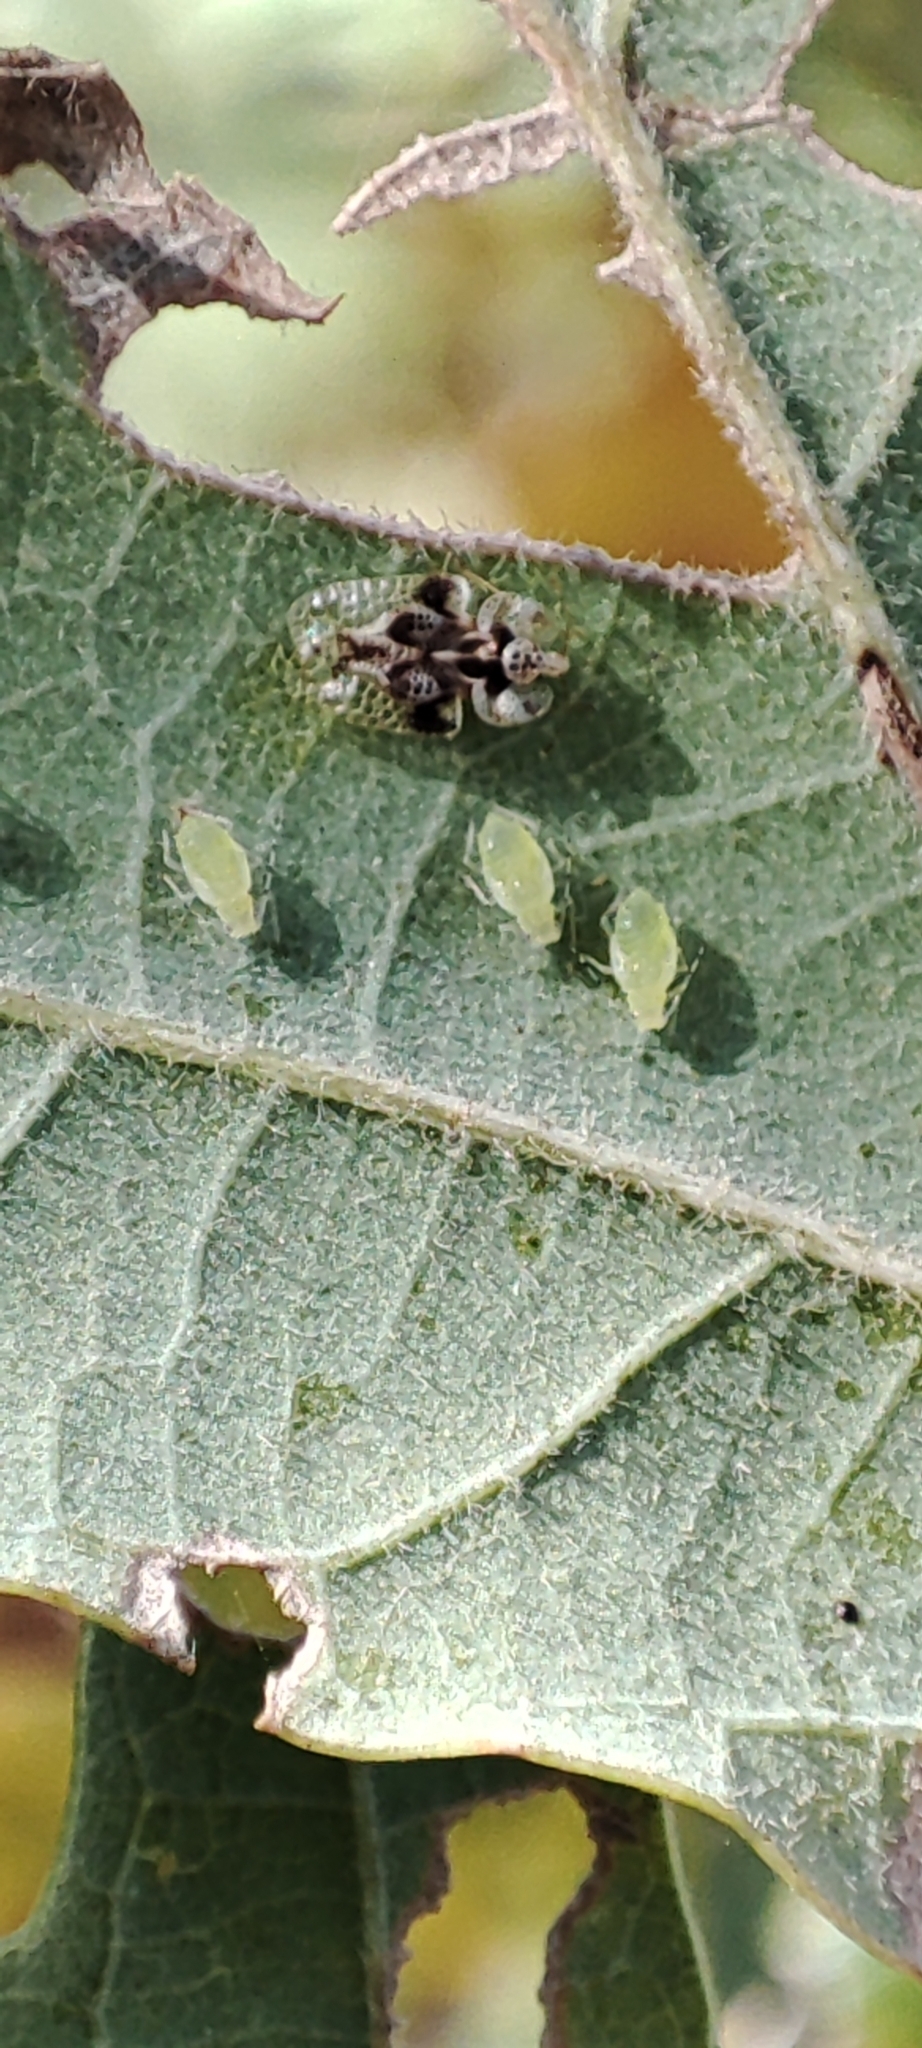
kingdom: Animalia
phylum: Arthropoda
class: Insecta
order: Hemiptera
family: Tingidae
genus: Corythucha
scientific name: Corythucha arcuata
